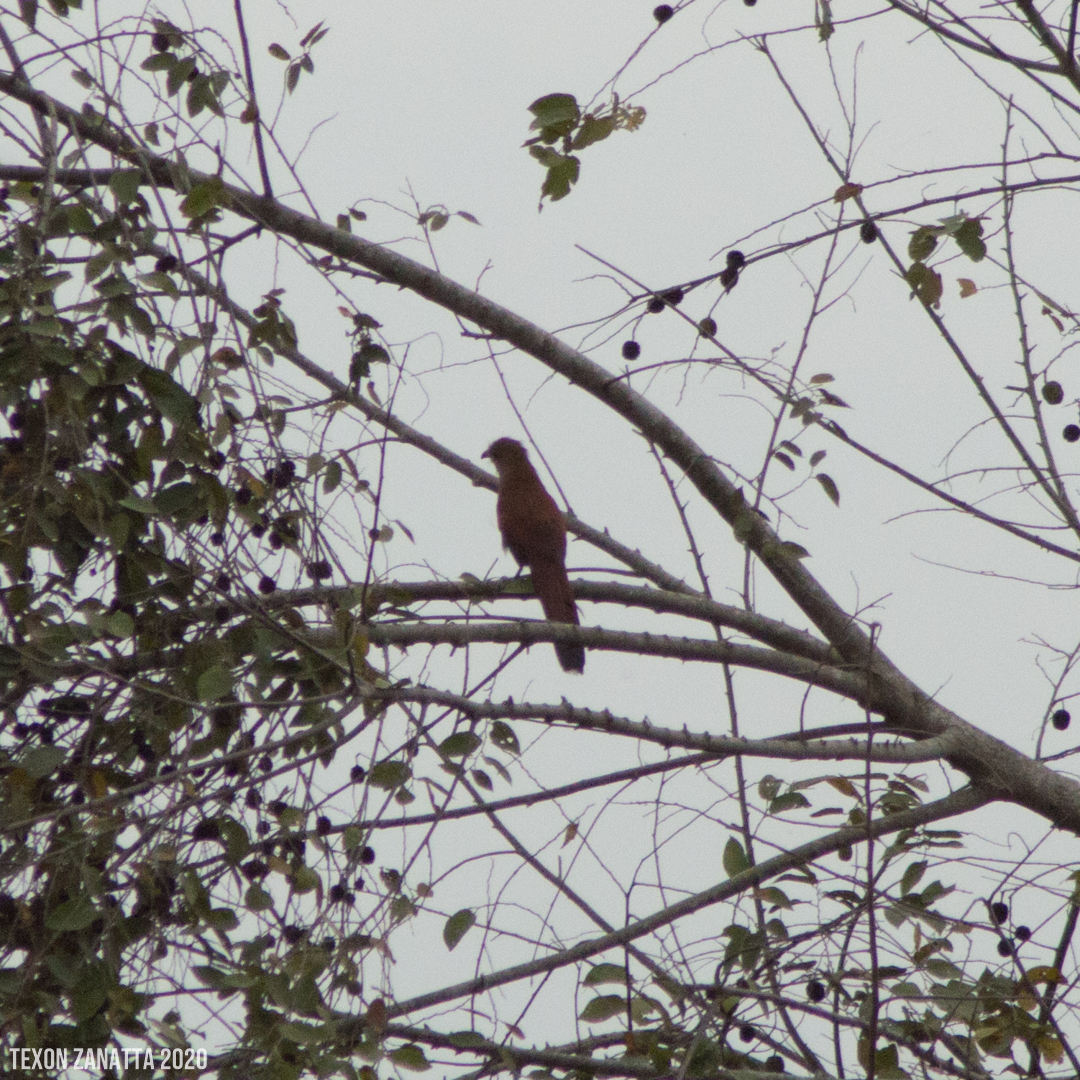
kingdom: Animalia
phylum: Chordata
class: Aves
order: Cuculiformes
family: Cuculidae
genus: Piaya
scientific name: Piaya cayana
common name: Squirrel cuckoo
